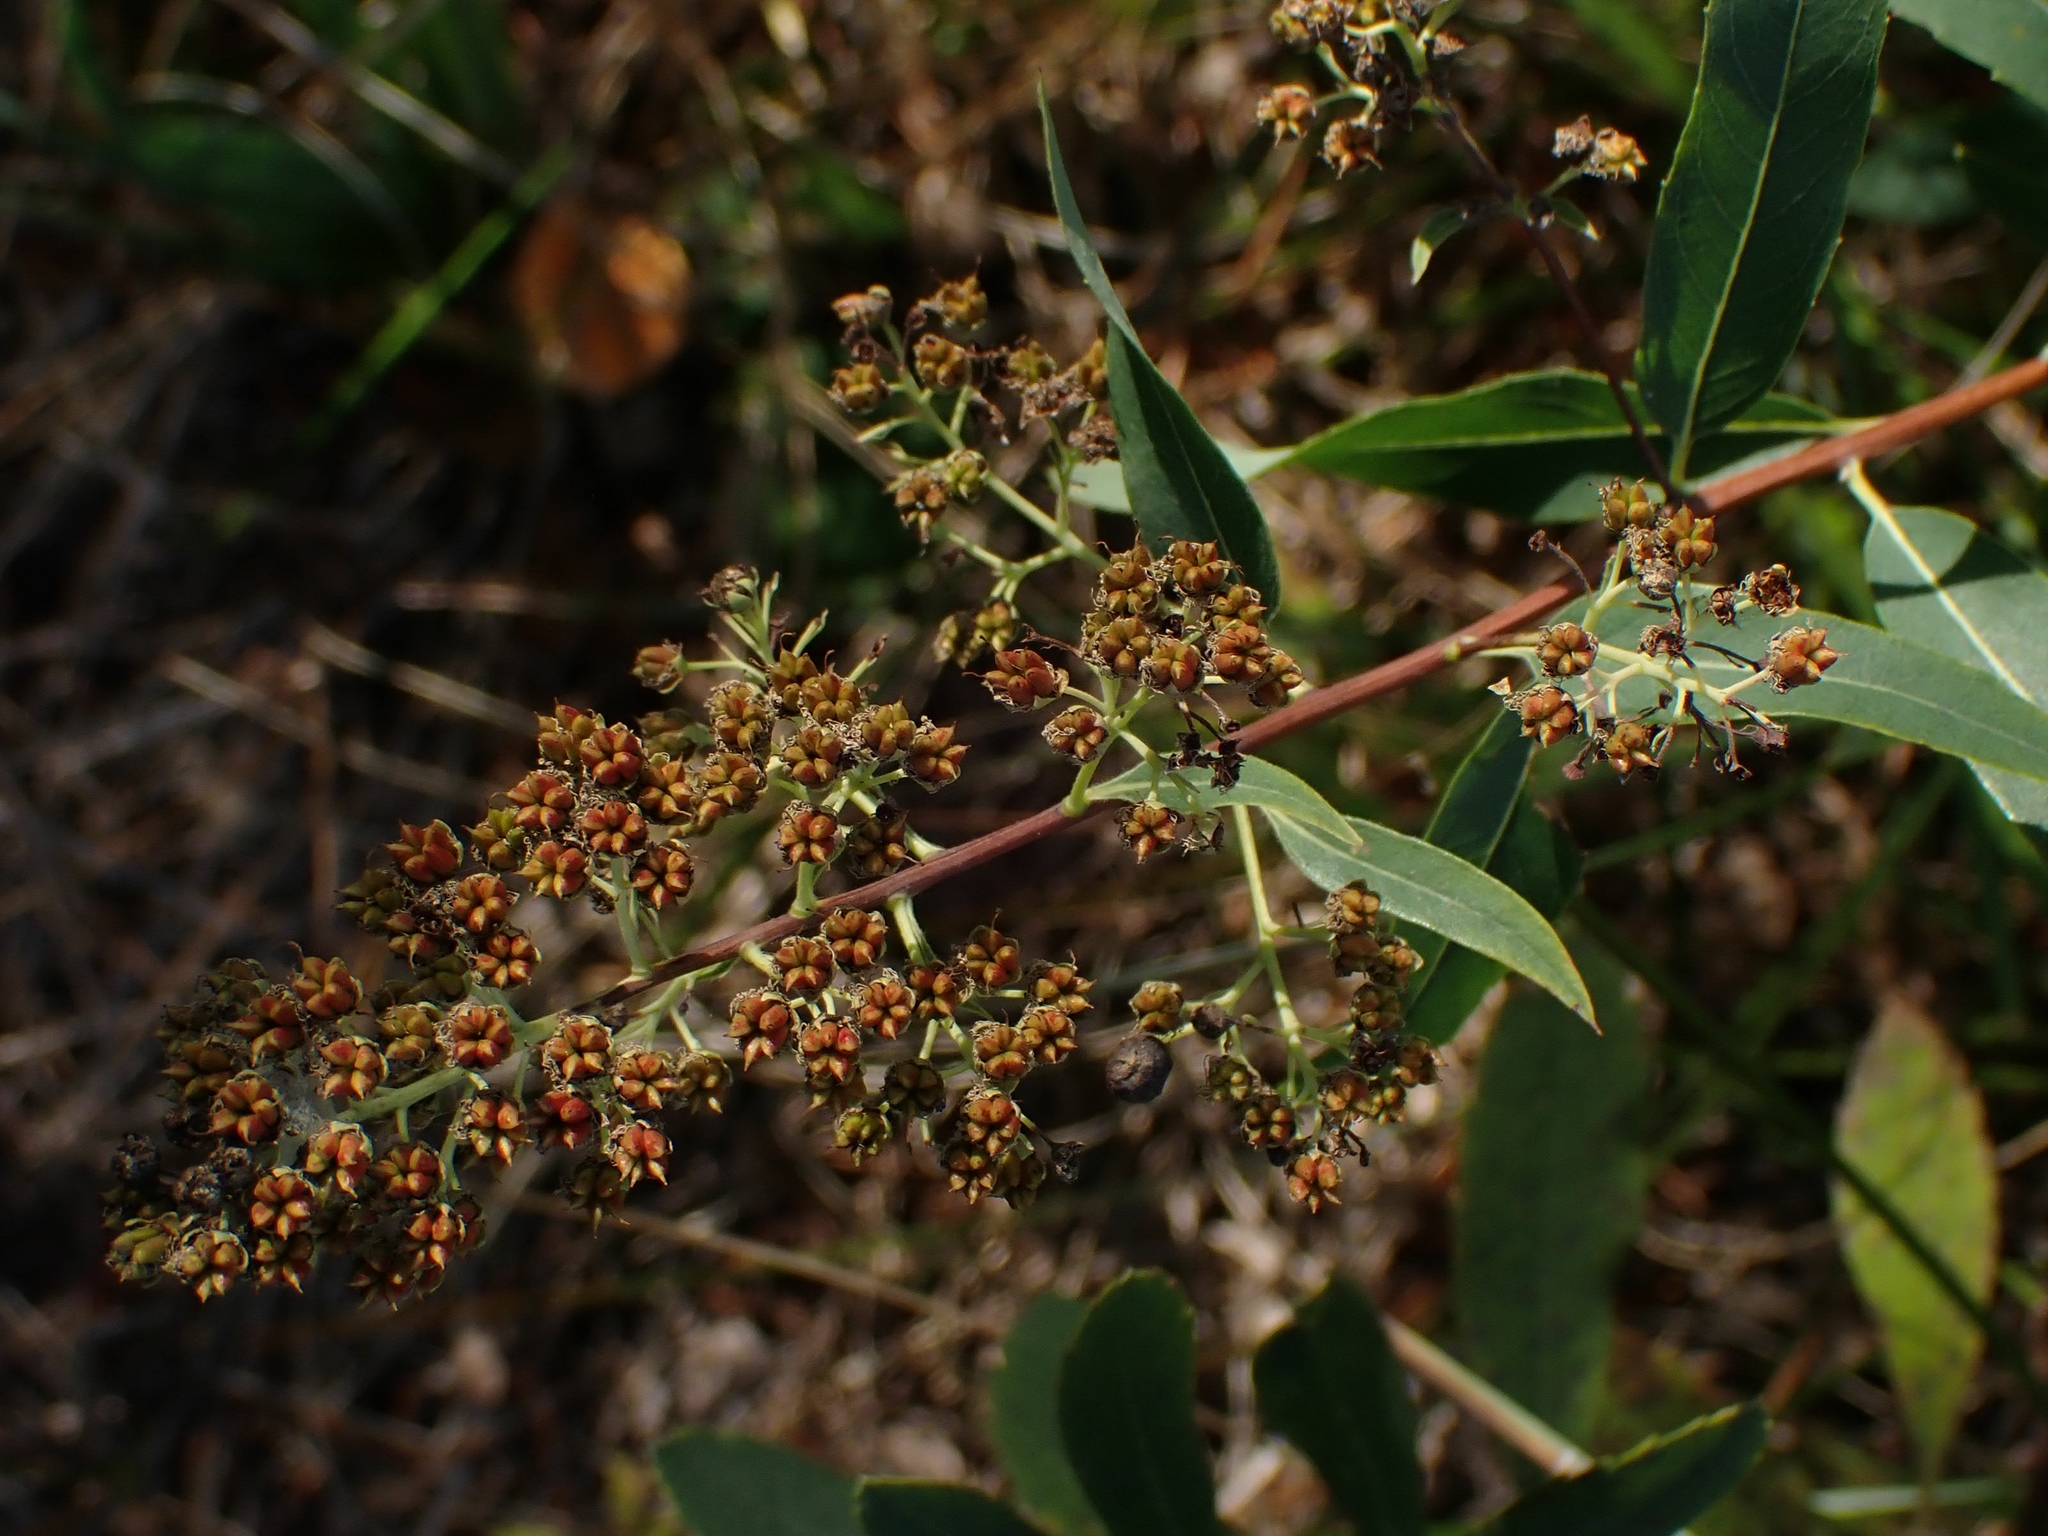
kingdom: Plantae
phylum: Tracheophyta
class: Magnoliopsida
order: Rosales
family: Rosaceae
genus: Spiraea
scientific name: Spiraea alba
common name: Pale bridewort
